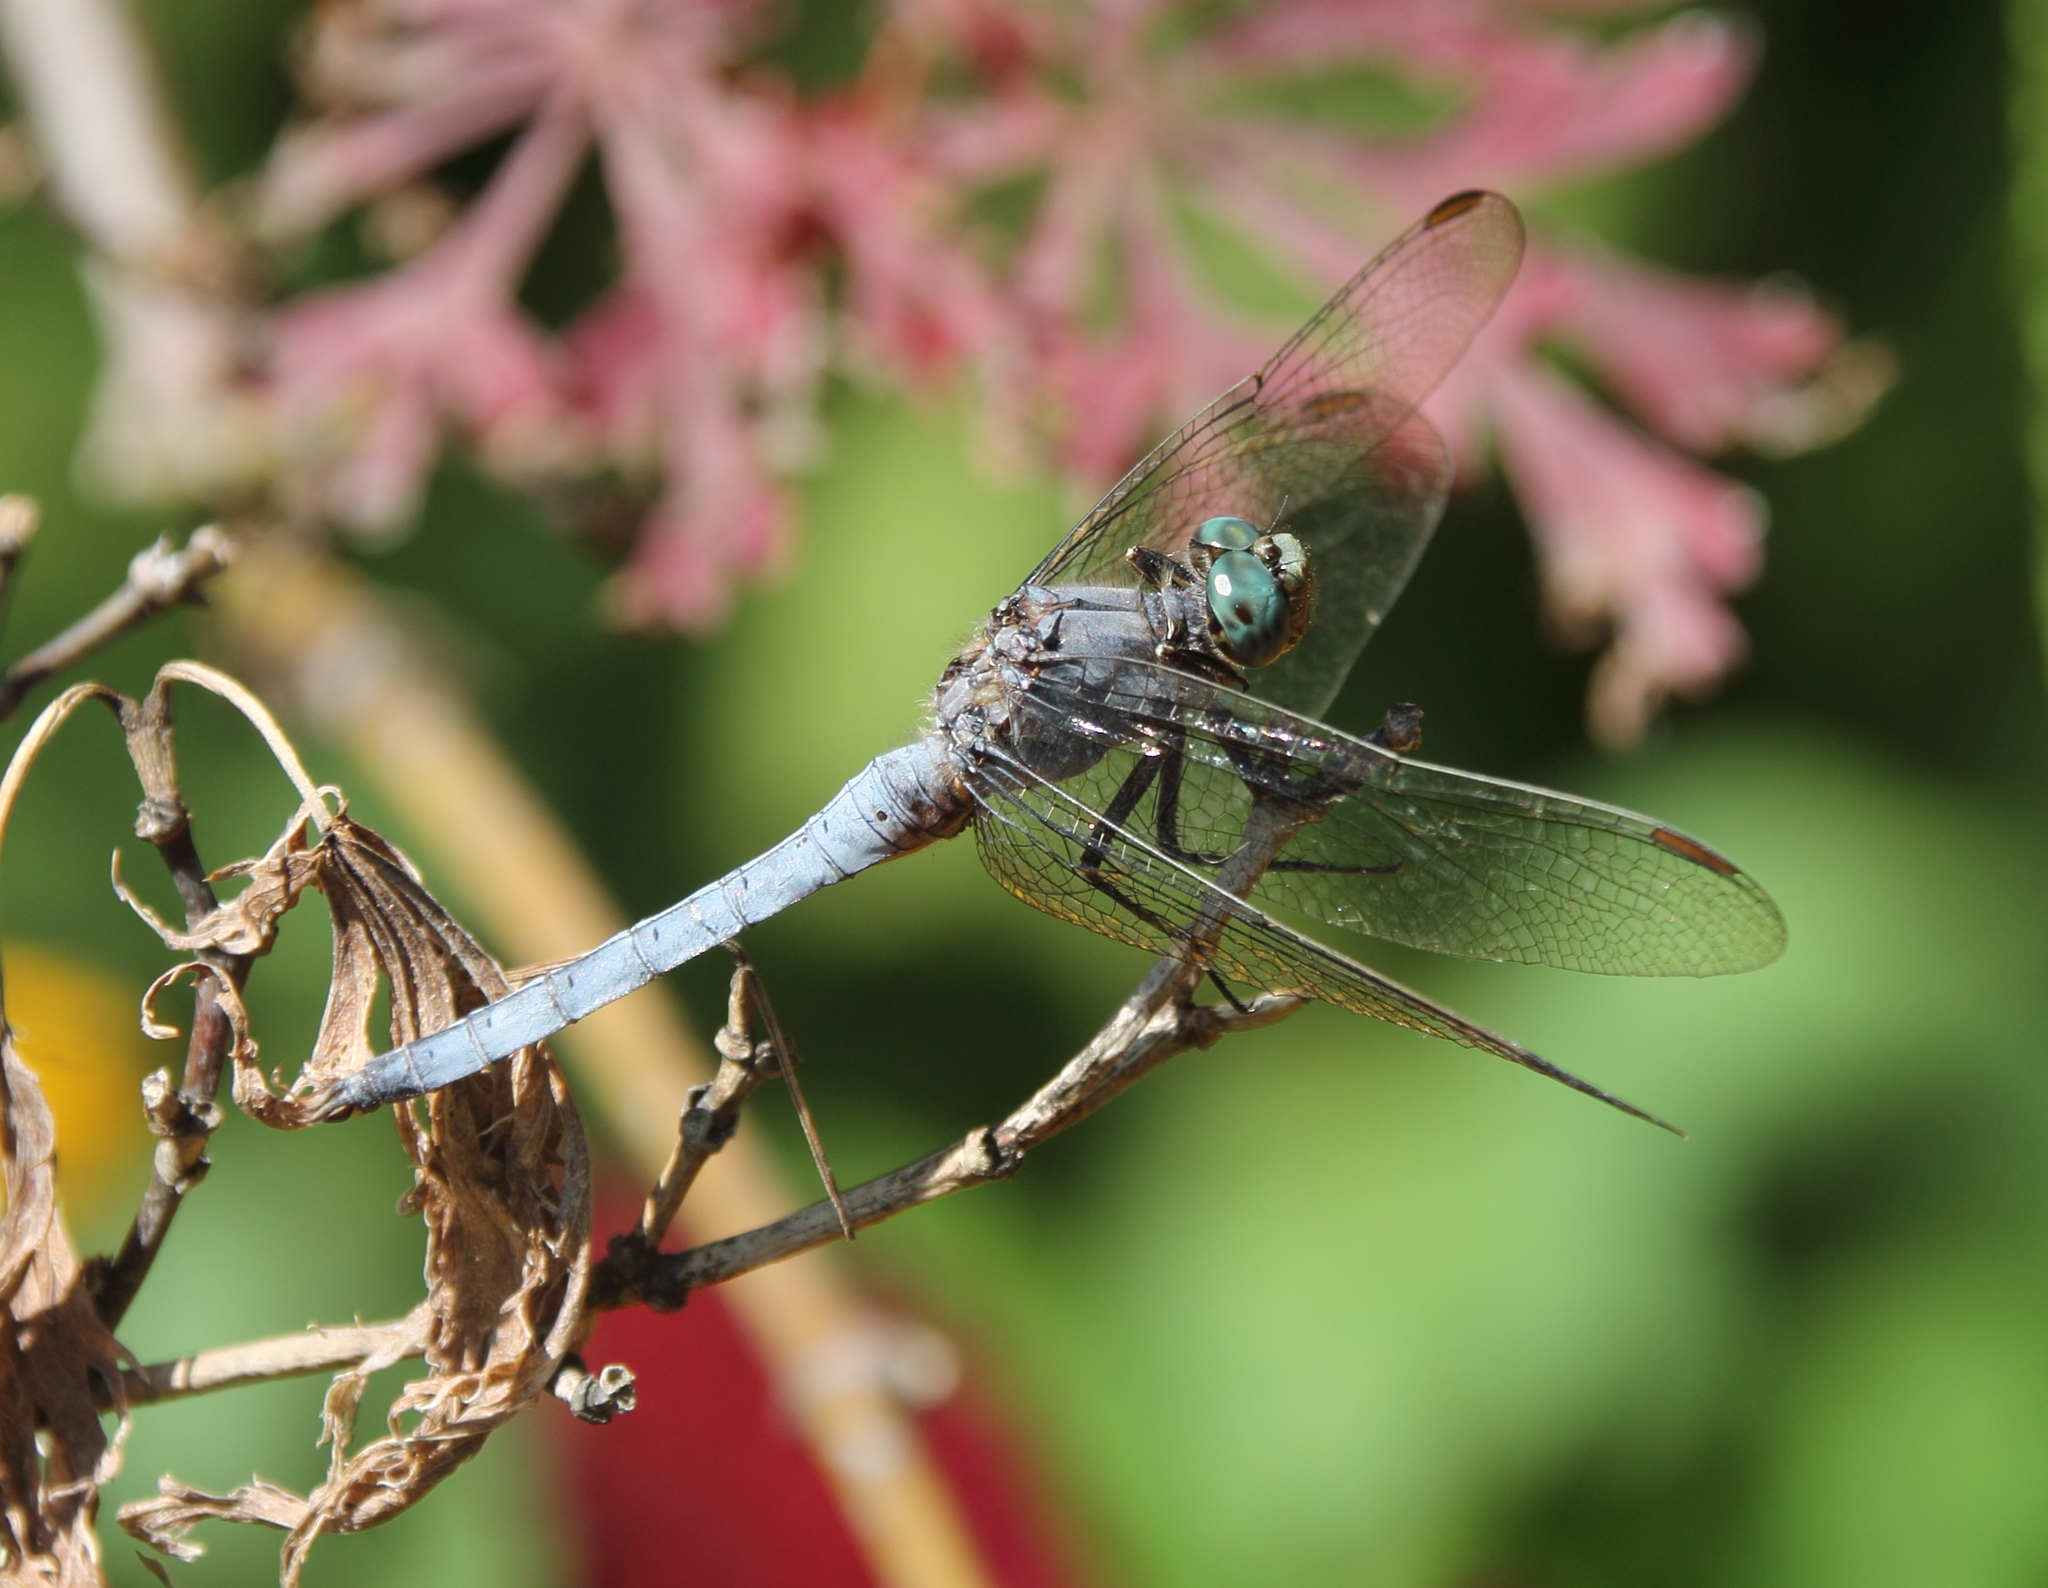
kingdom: Animalia
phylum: Arthropoda
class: Insecta
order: Odonata
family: Libellulidae
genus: Orthetrum
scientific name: Orthetrum coerulescens
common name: Keeled skimmer
